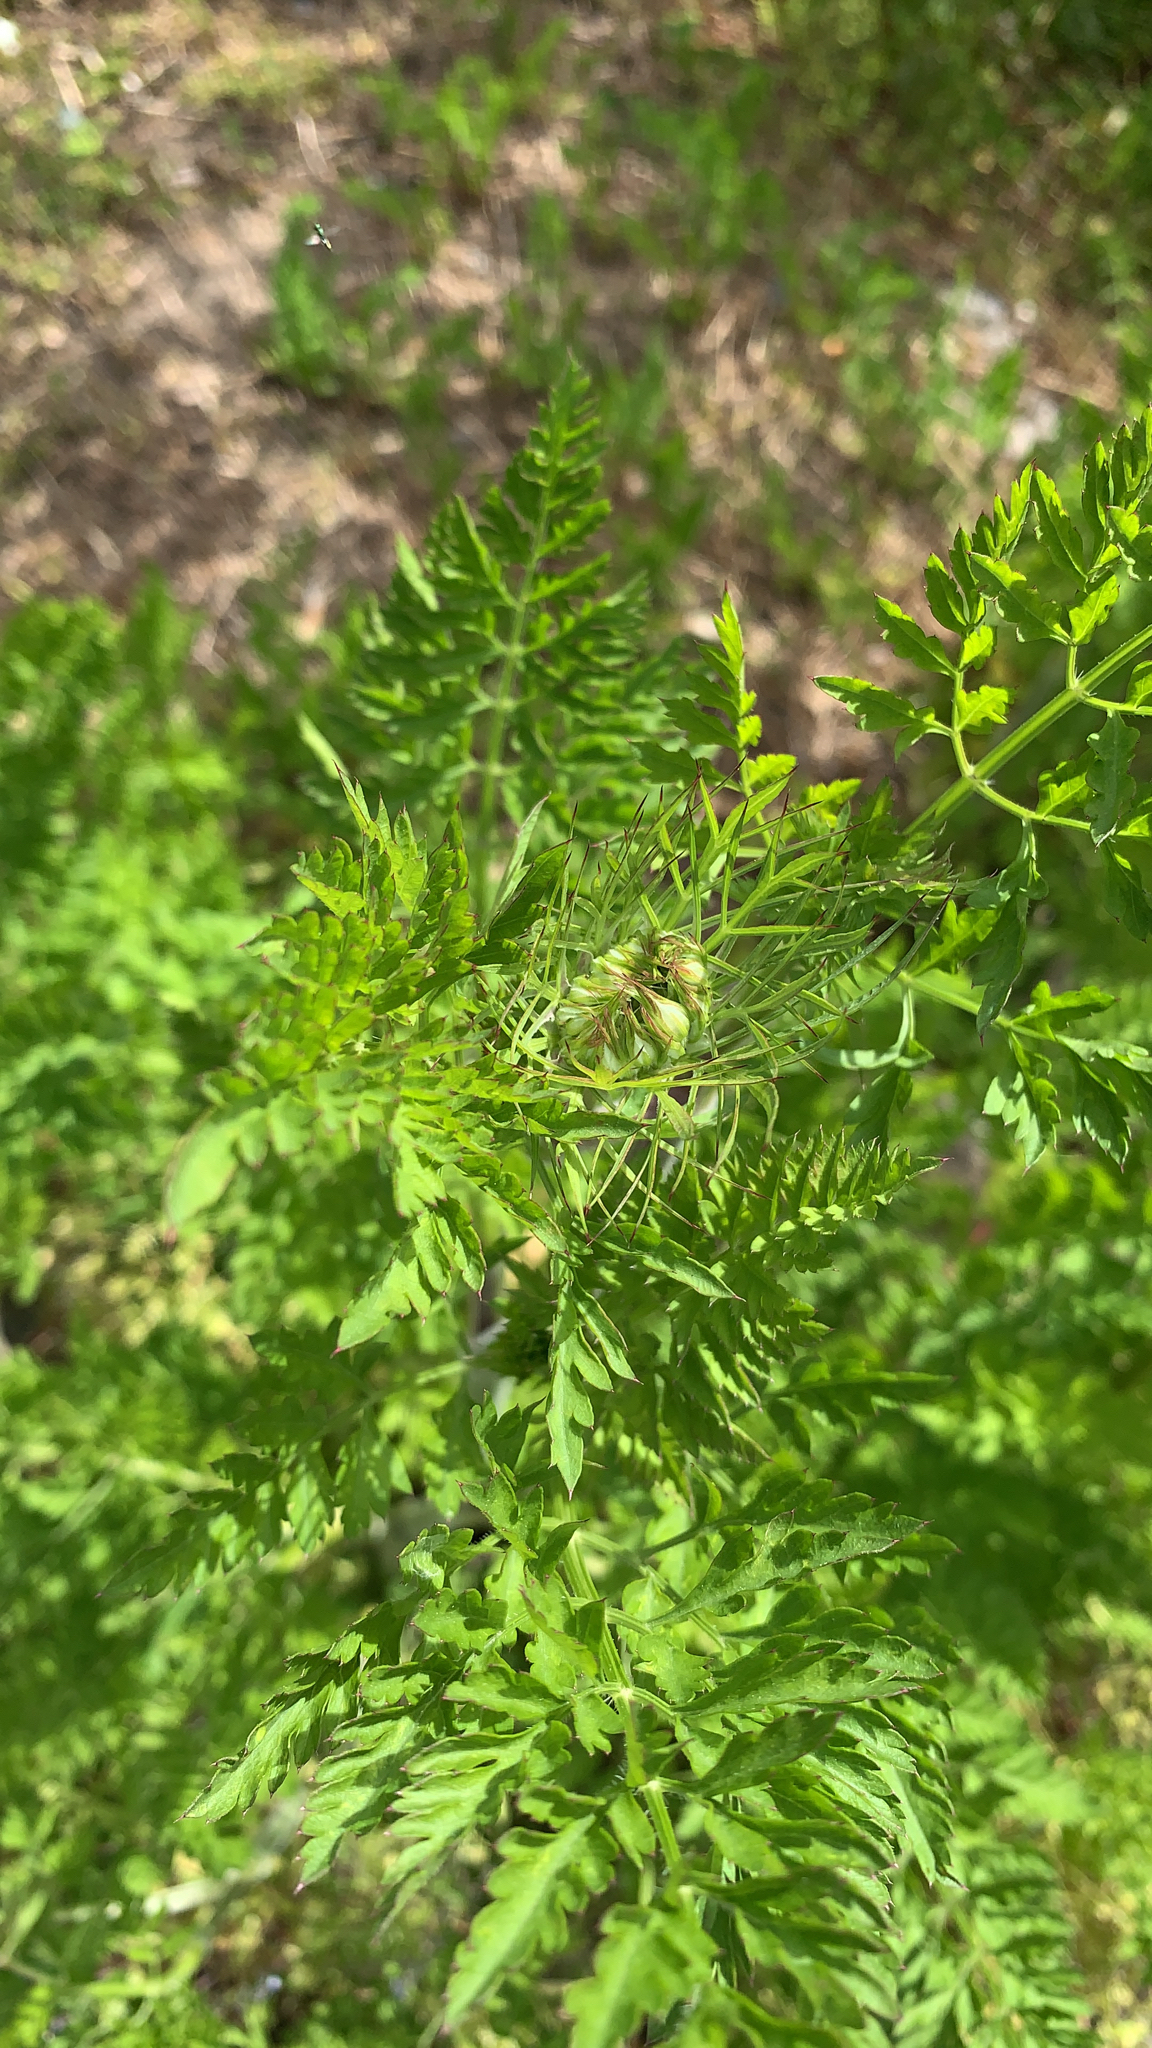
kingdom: Plantae
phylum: Tracheophyta
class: Magnoliopsida
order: Asterales
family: Asteraceae
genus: Ambrosia
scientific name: Ambrosia artemisiifolia
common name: Annual ragweed
